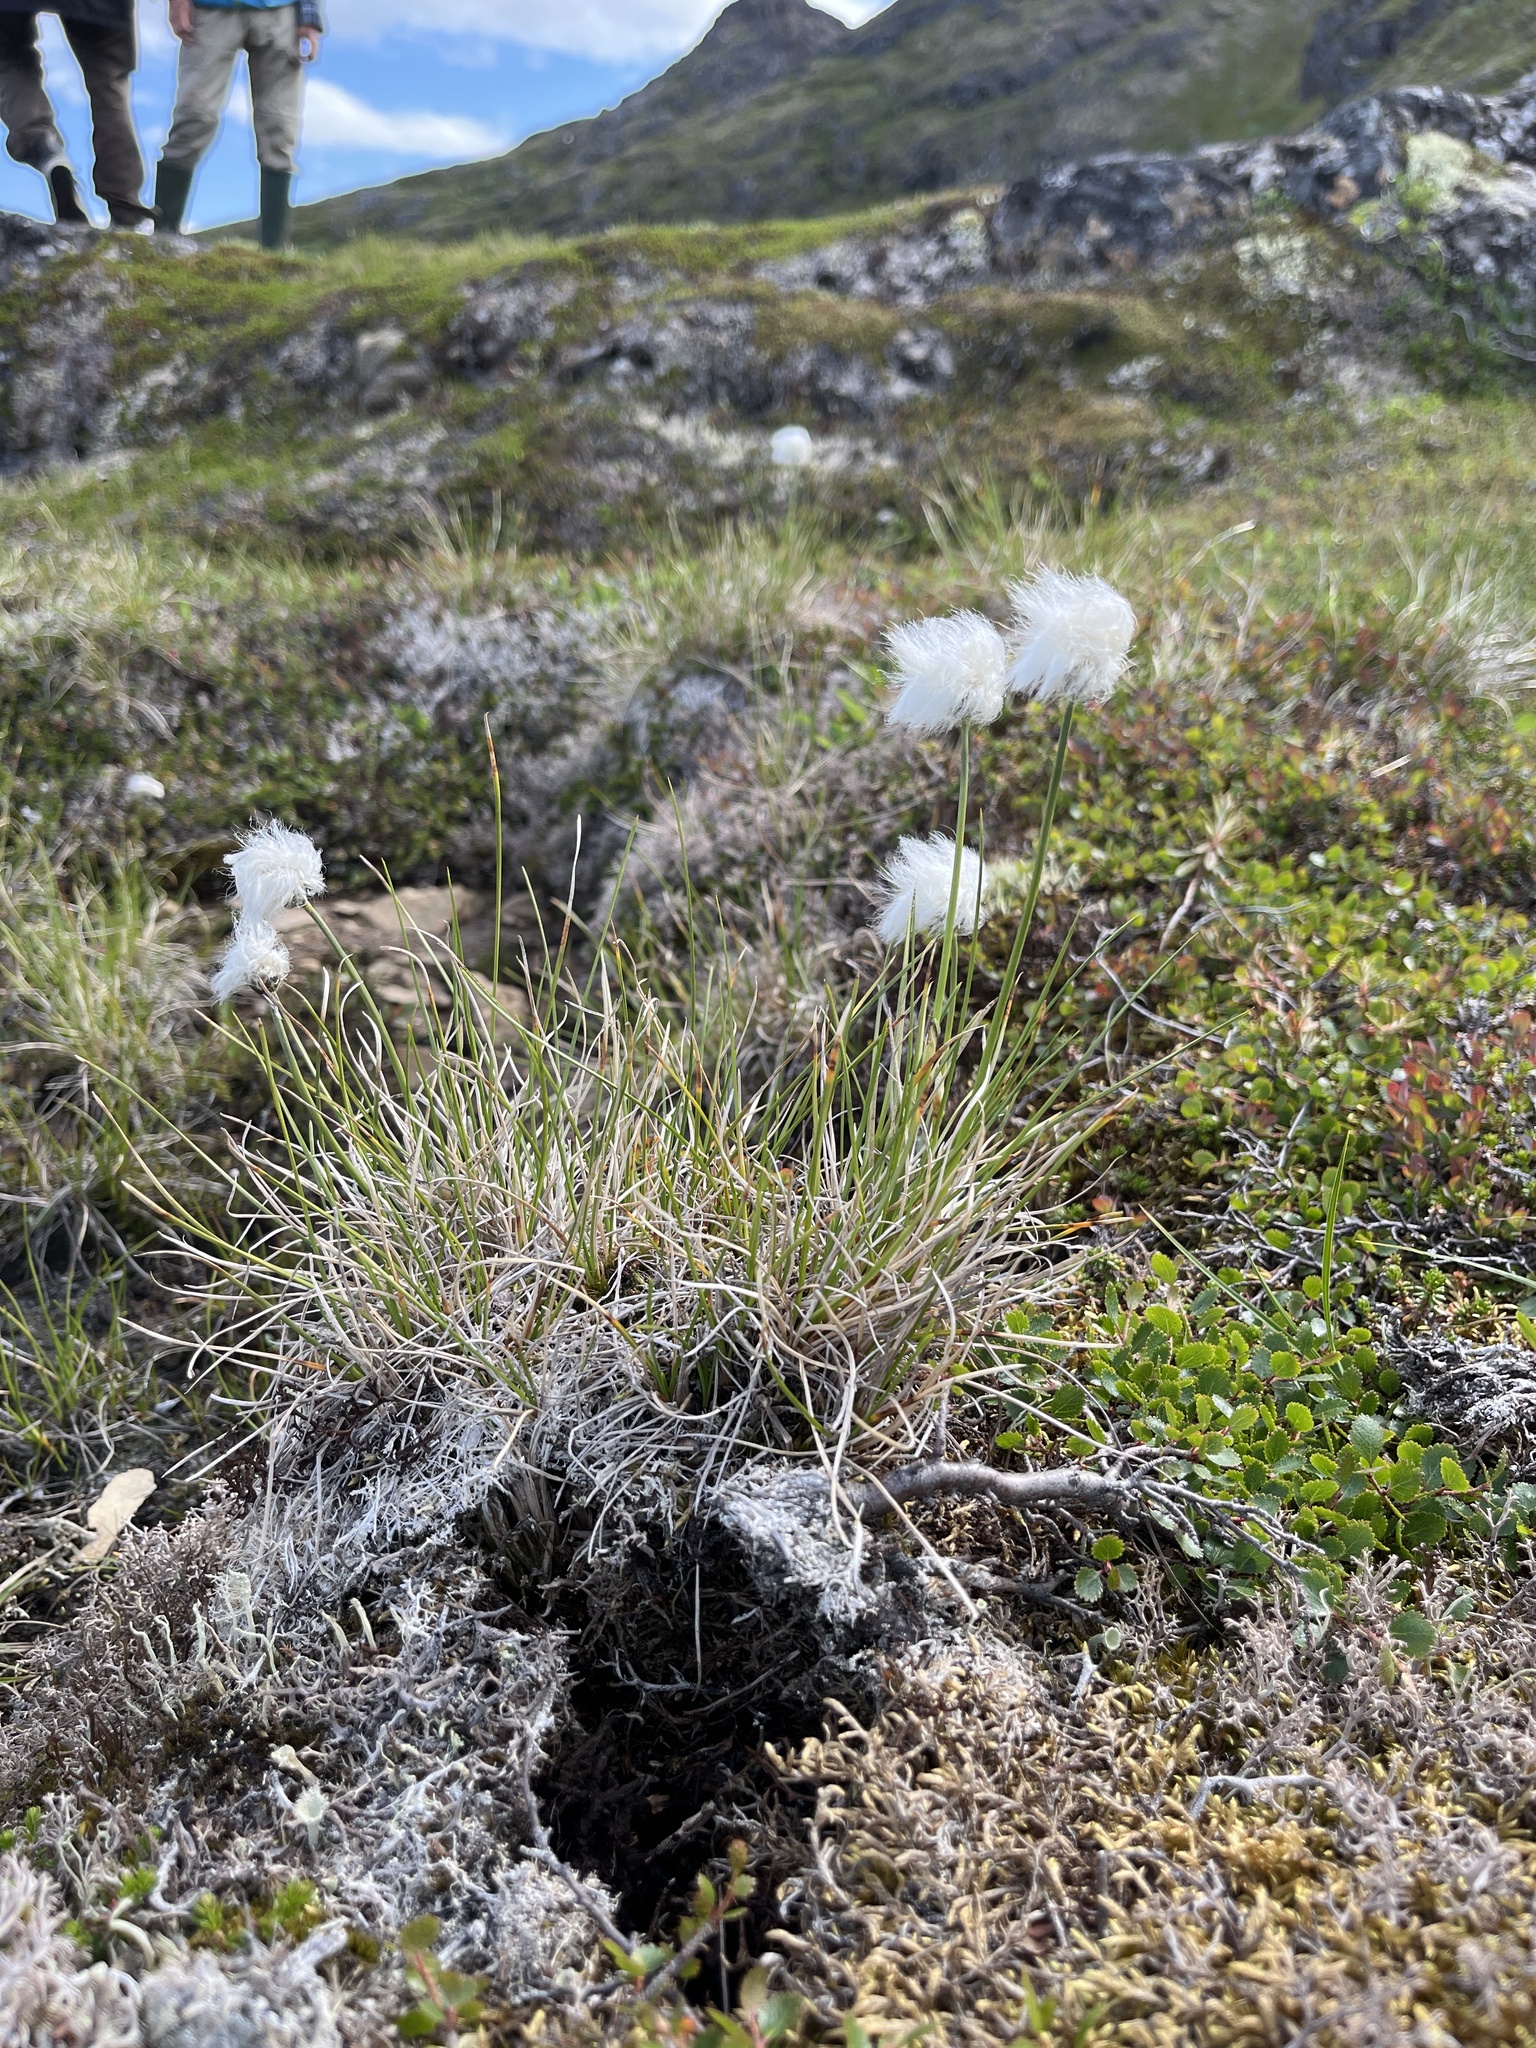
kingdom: Plantae
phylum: Tracheophyta
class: Liliopsida
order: Poales
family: Cyperaceae
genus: Eriophorum
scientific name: Eriophorum vaginatum
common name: Hare's-tail cottongrass
